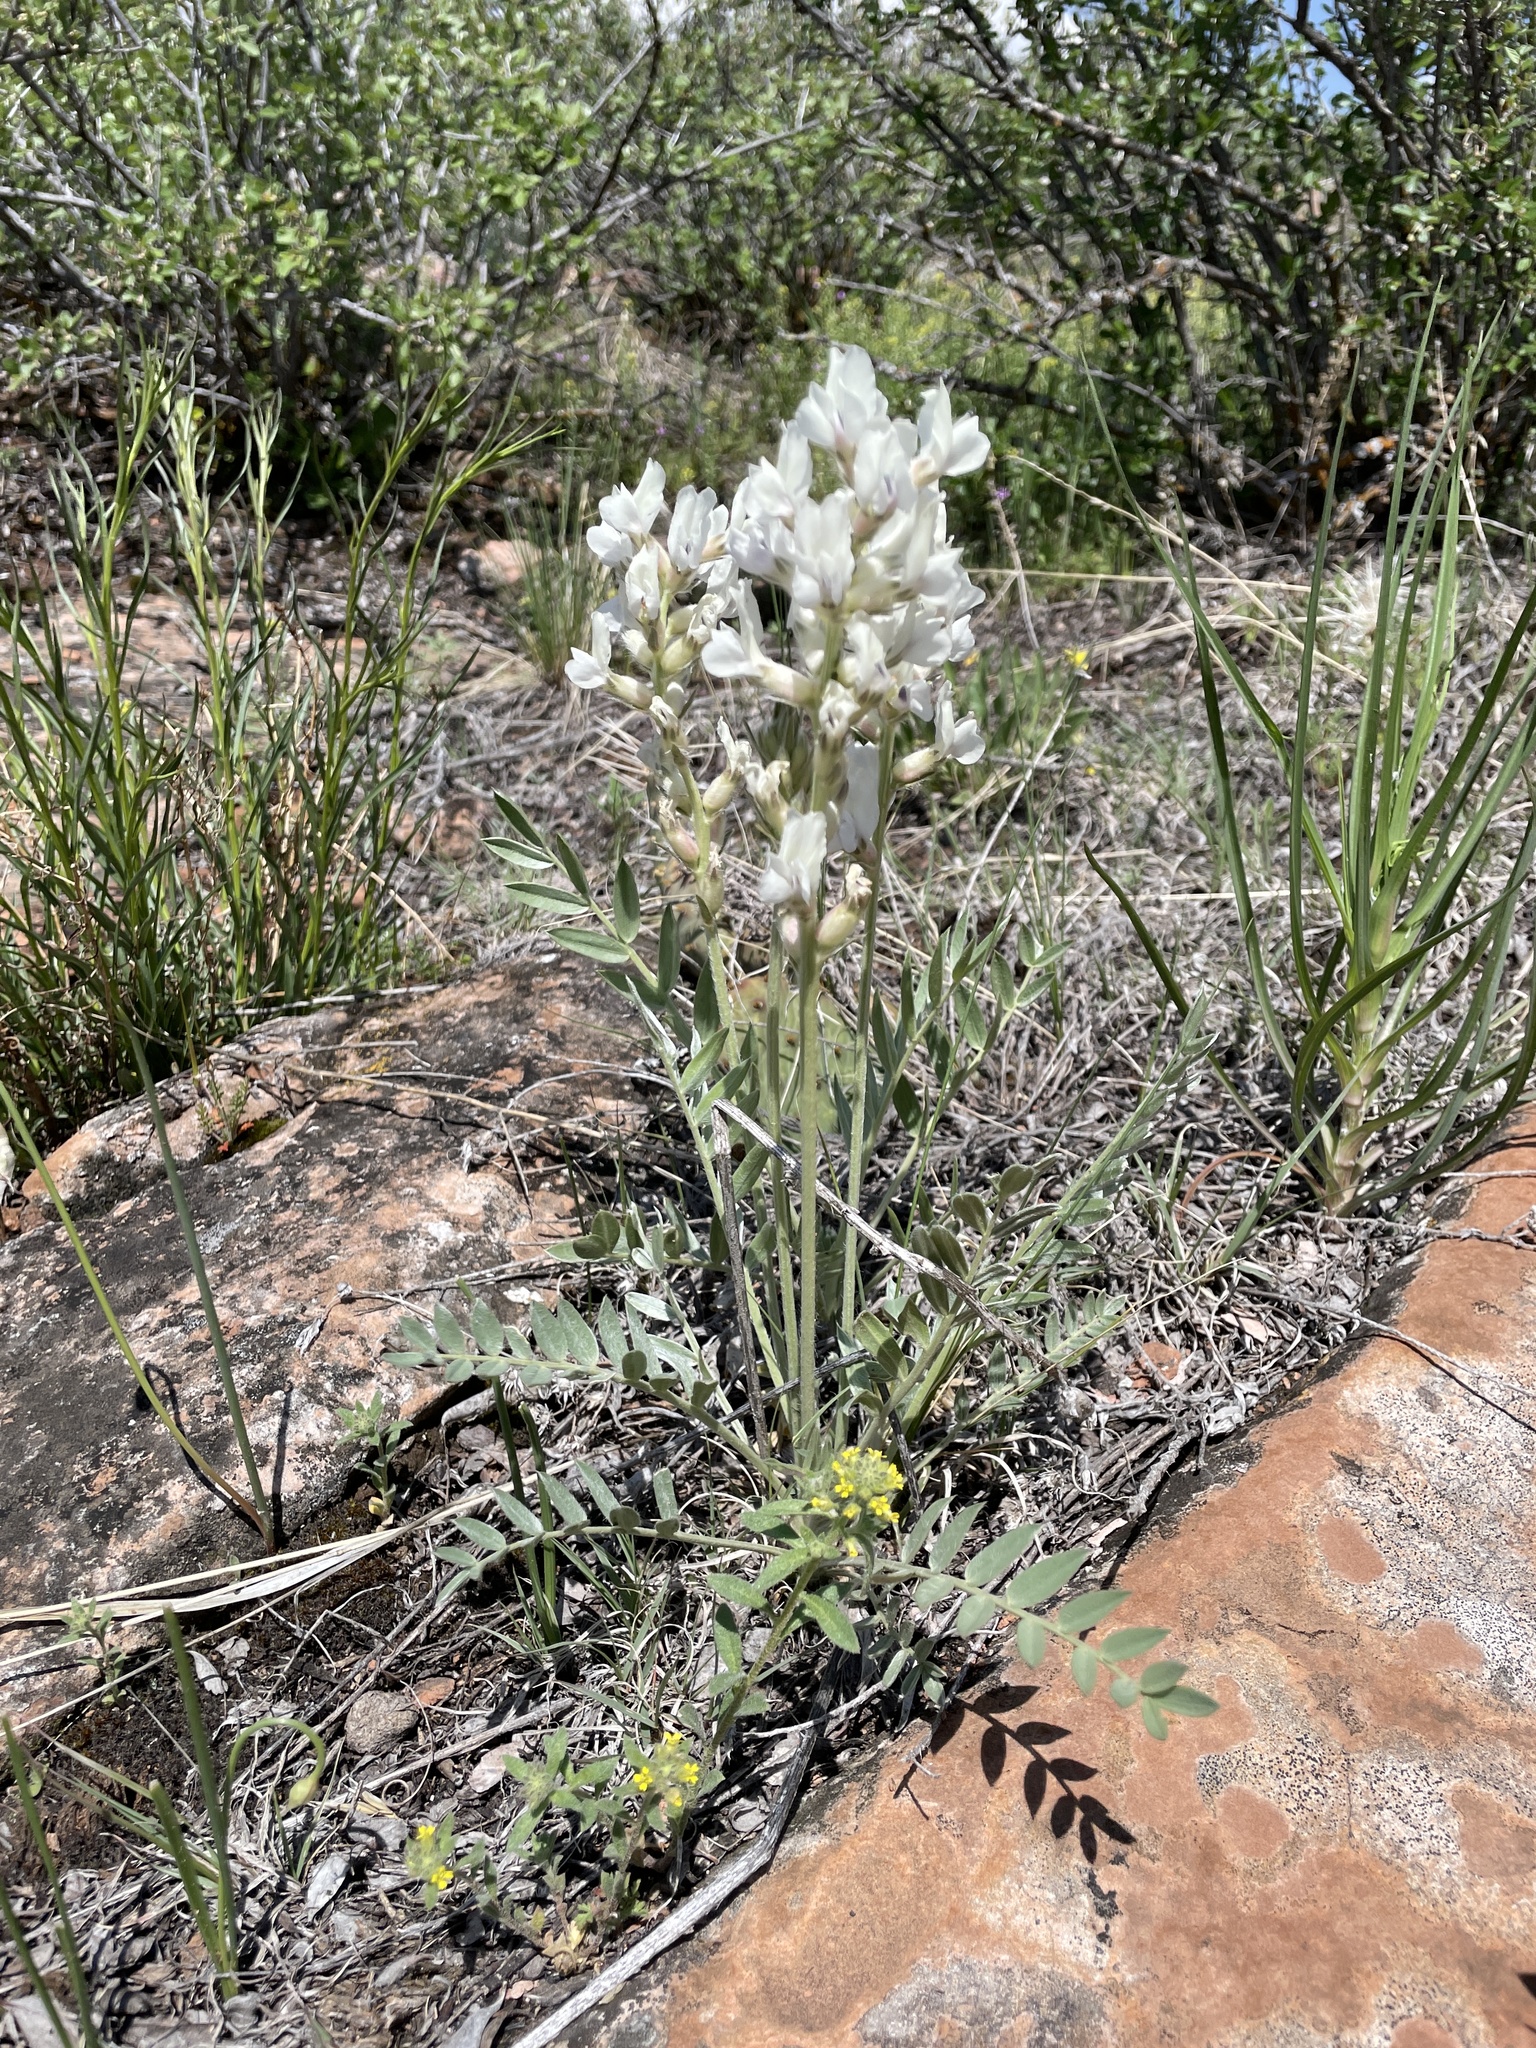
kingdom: Plantae
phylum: Tracheophyta
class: Magnoliopsida
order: Fabales
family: Fabaceae
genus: Oxytropis
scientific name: Oxytropis sericea
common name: Silky locoweed
